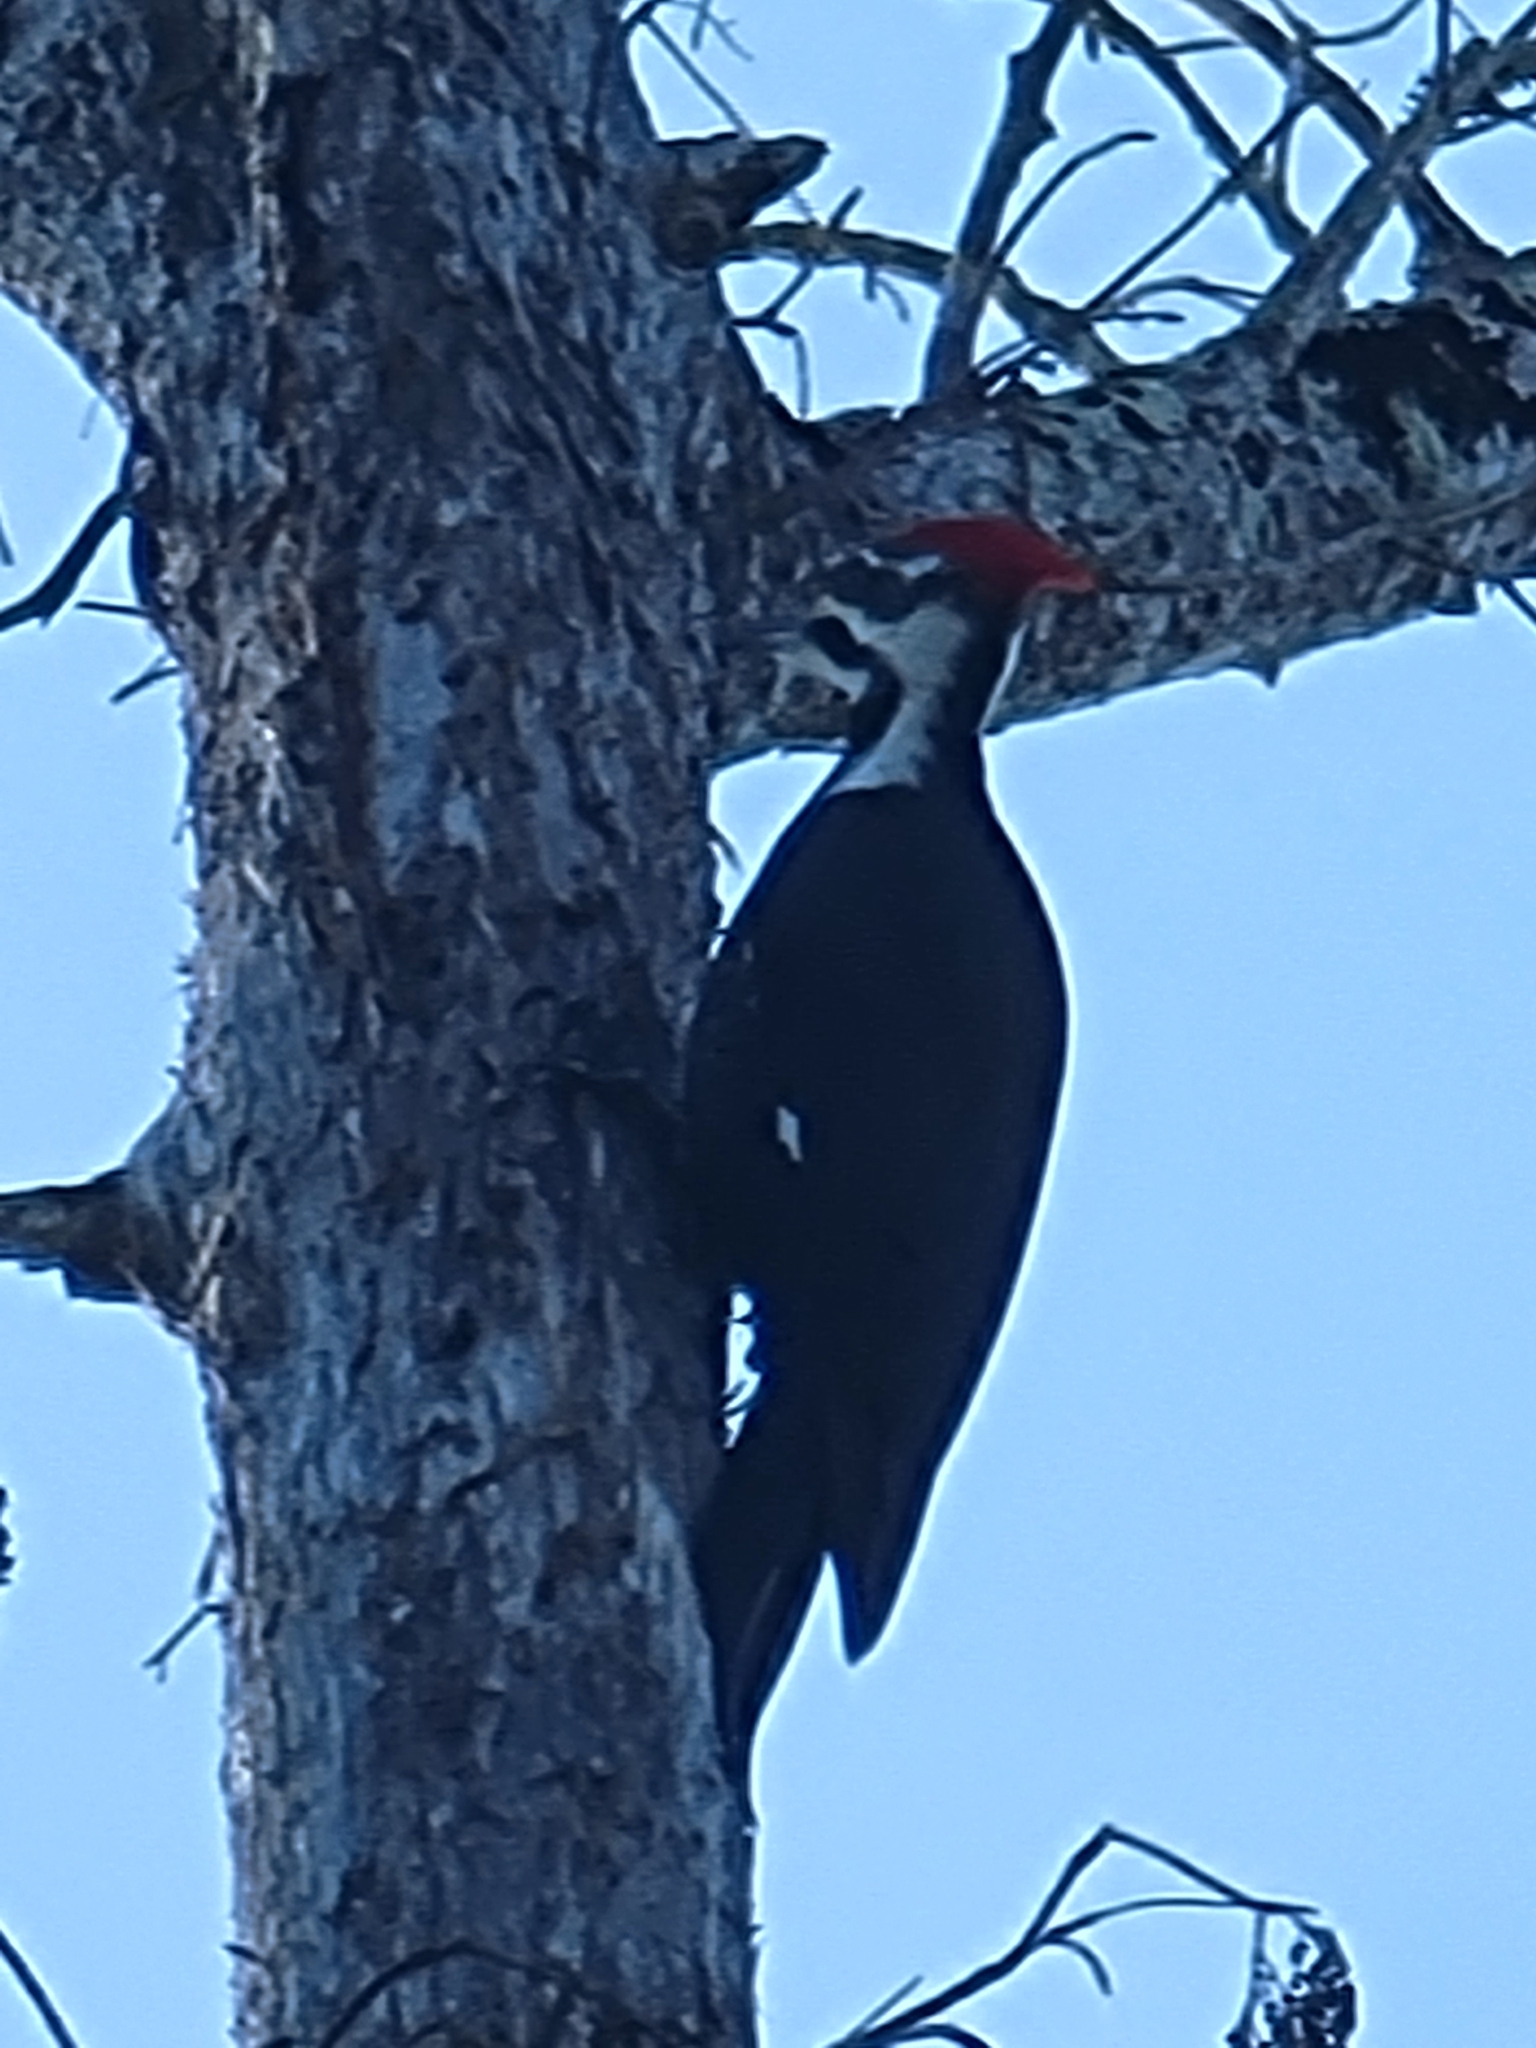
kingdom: Animalia
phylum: Chordata
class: Aves
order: Piciformes
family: Picidae
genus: Dryocopus
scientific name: Dryocopus pileatus
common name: Pileated woodpecker
